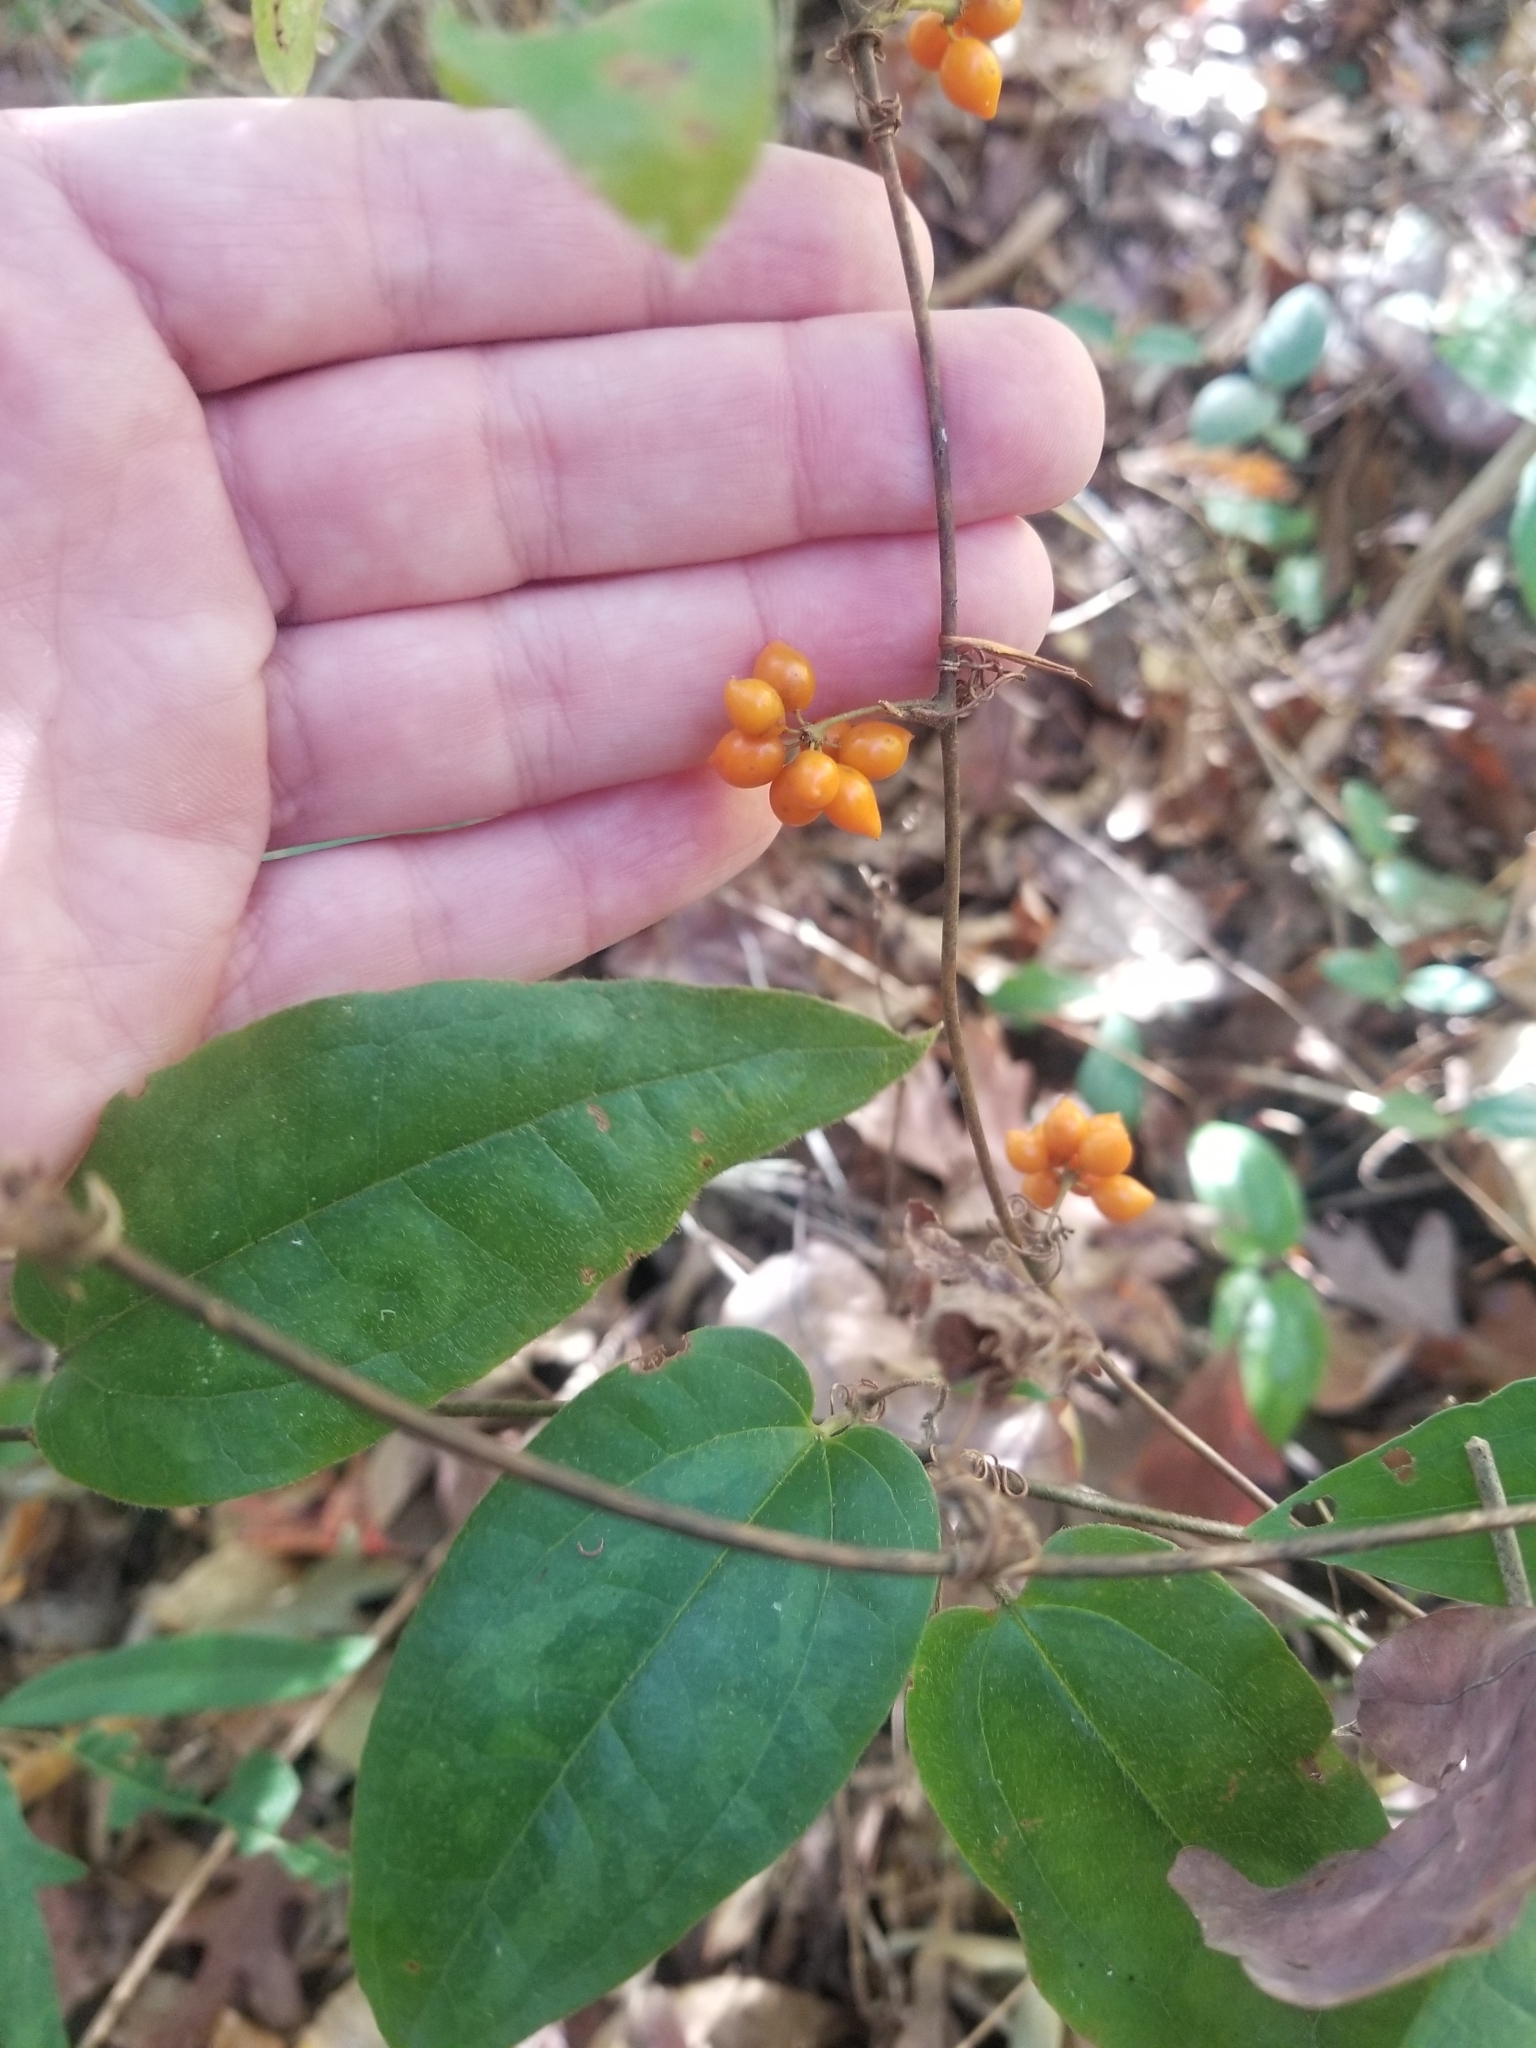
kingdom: Plantae
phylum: Tracheophyta
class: Liliopsida
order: Liliales
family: Smilacaceae
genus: Smilax
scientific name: Smilax pumila
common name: Sarsaparilla-vine
